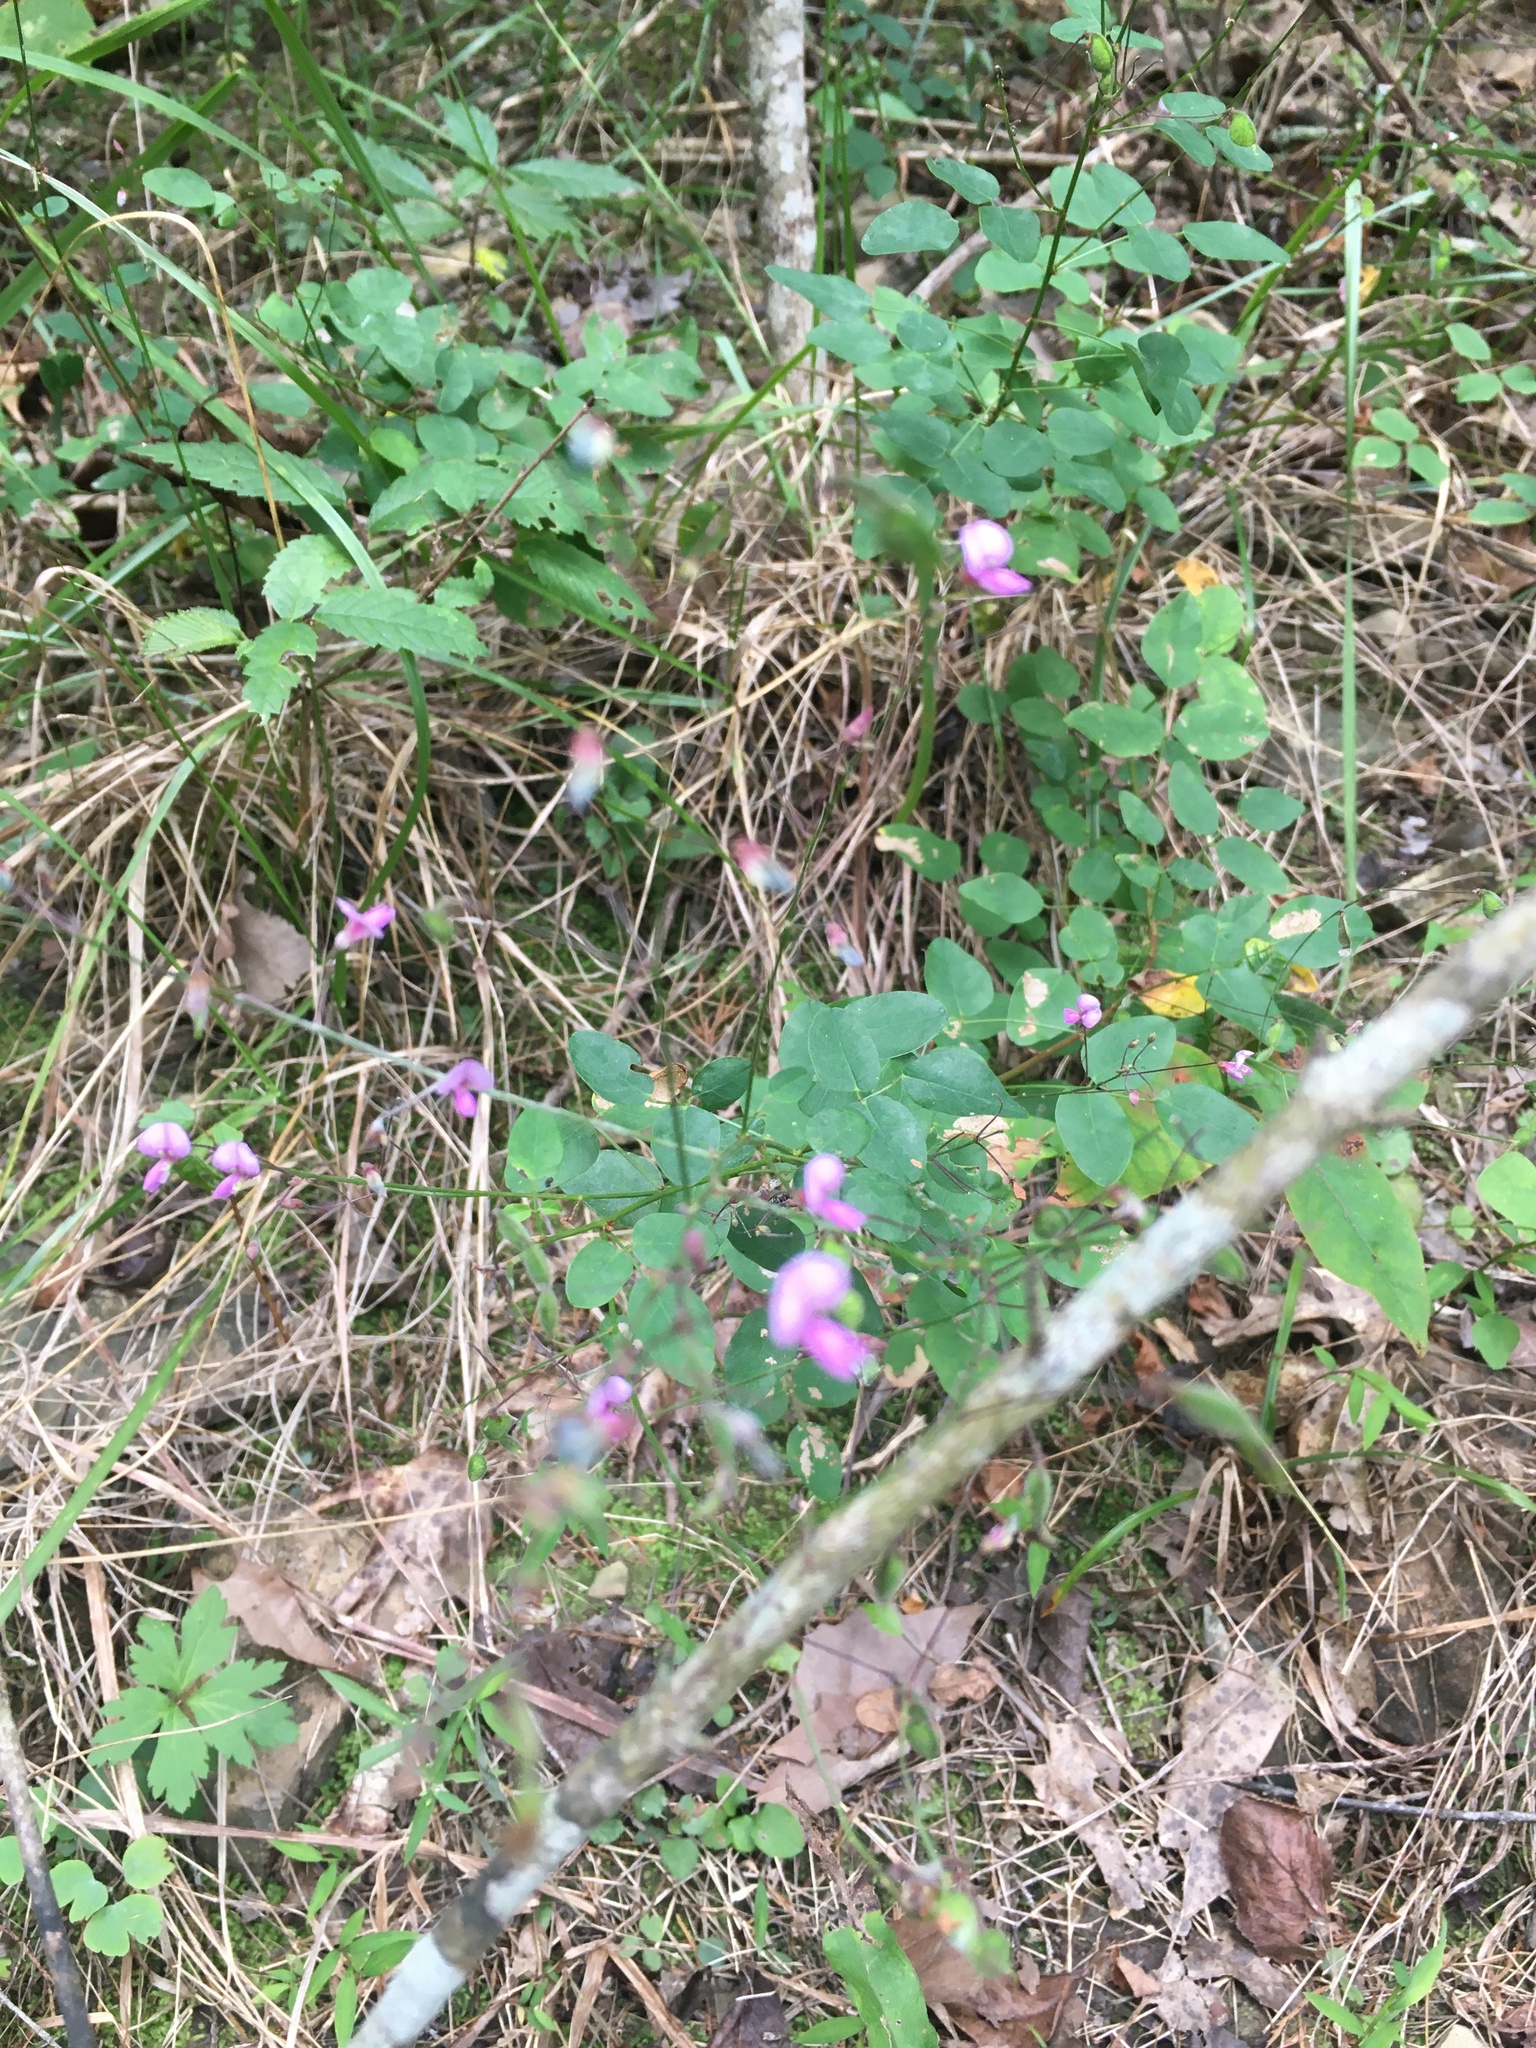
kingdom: Plantae
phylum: Tracheophyta
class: Magnoliopsida
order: Fabales
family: Fabaceae
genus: Desmodium
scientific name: Desmodium marilandicum
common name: Maryland tick-trefoil
